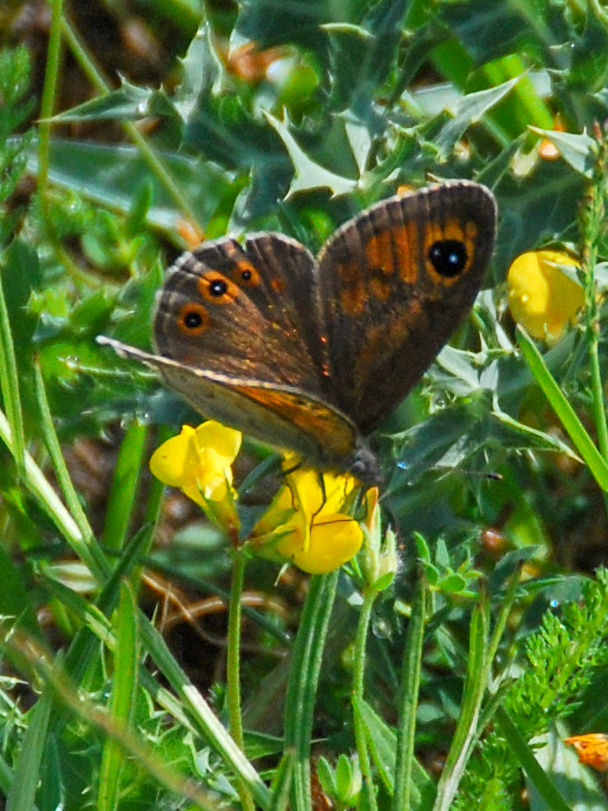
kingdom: Animalia
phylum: Arthropoda
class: Insecta
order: Lepidoptera
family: Nymphalidae
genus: Pararge
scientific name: Pararge Lasiommata maera
